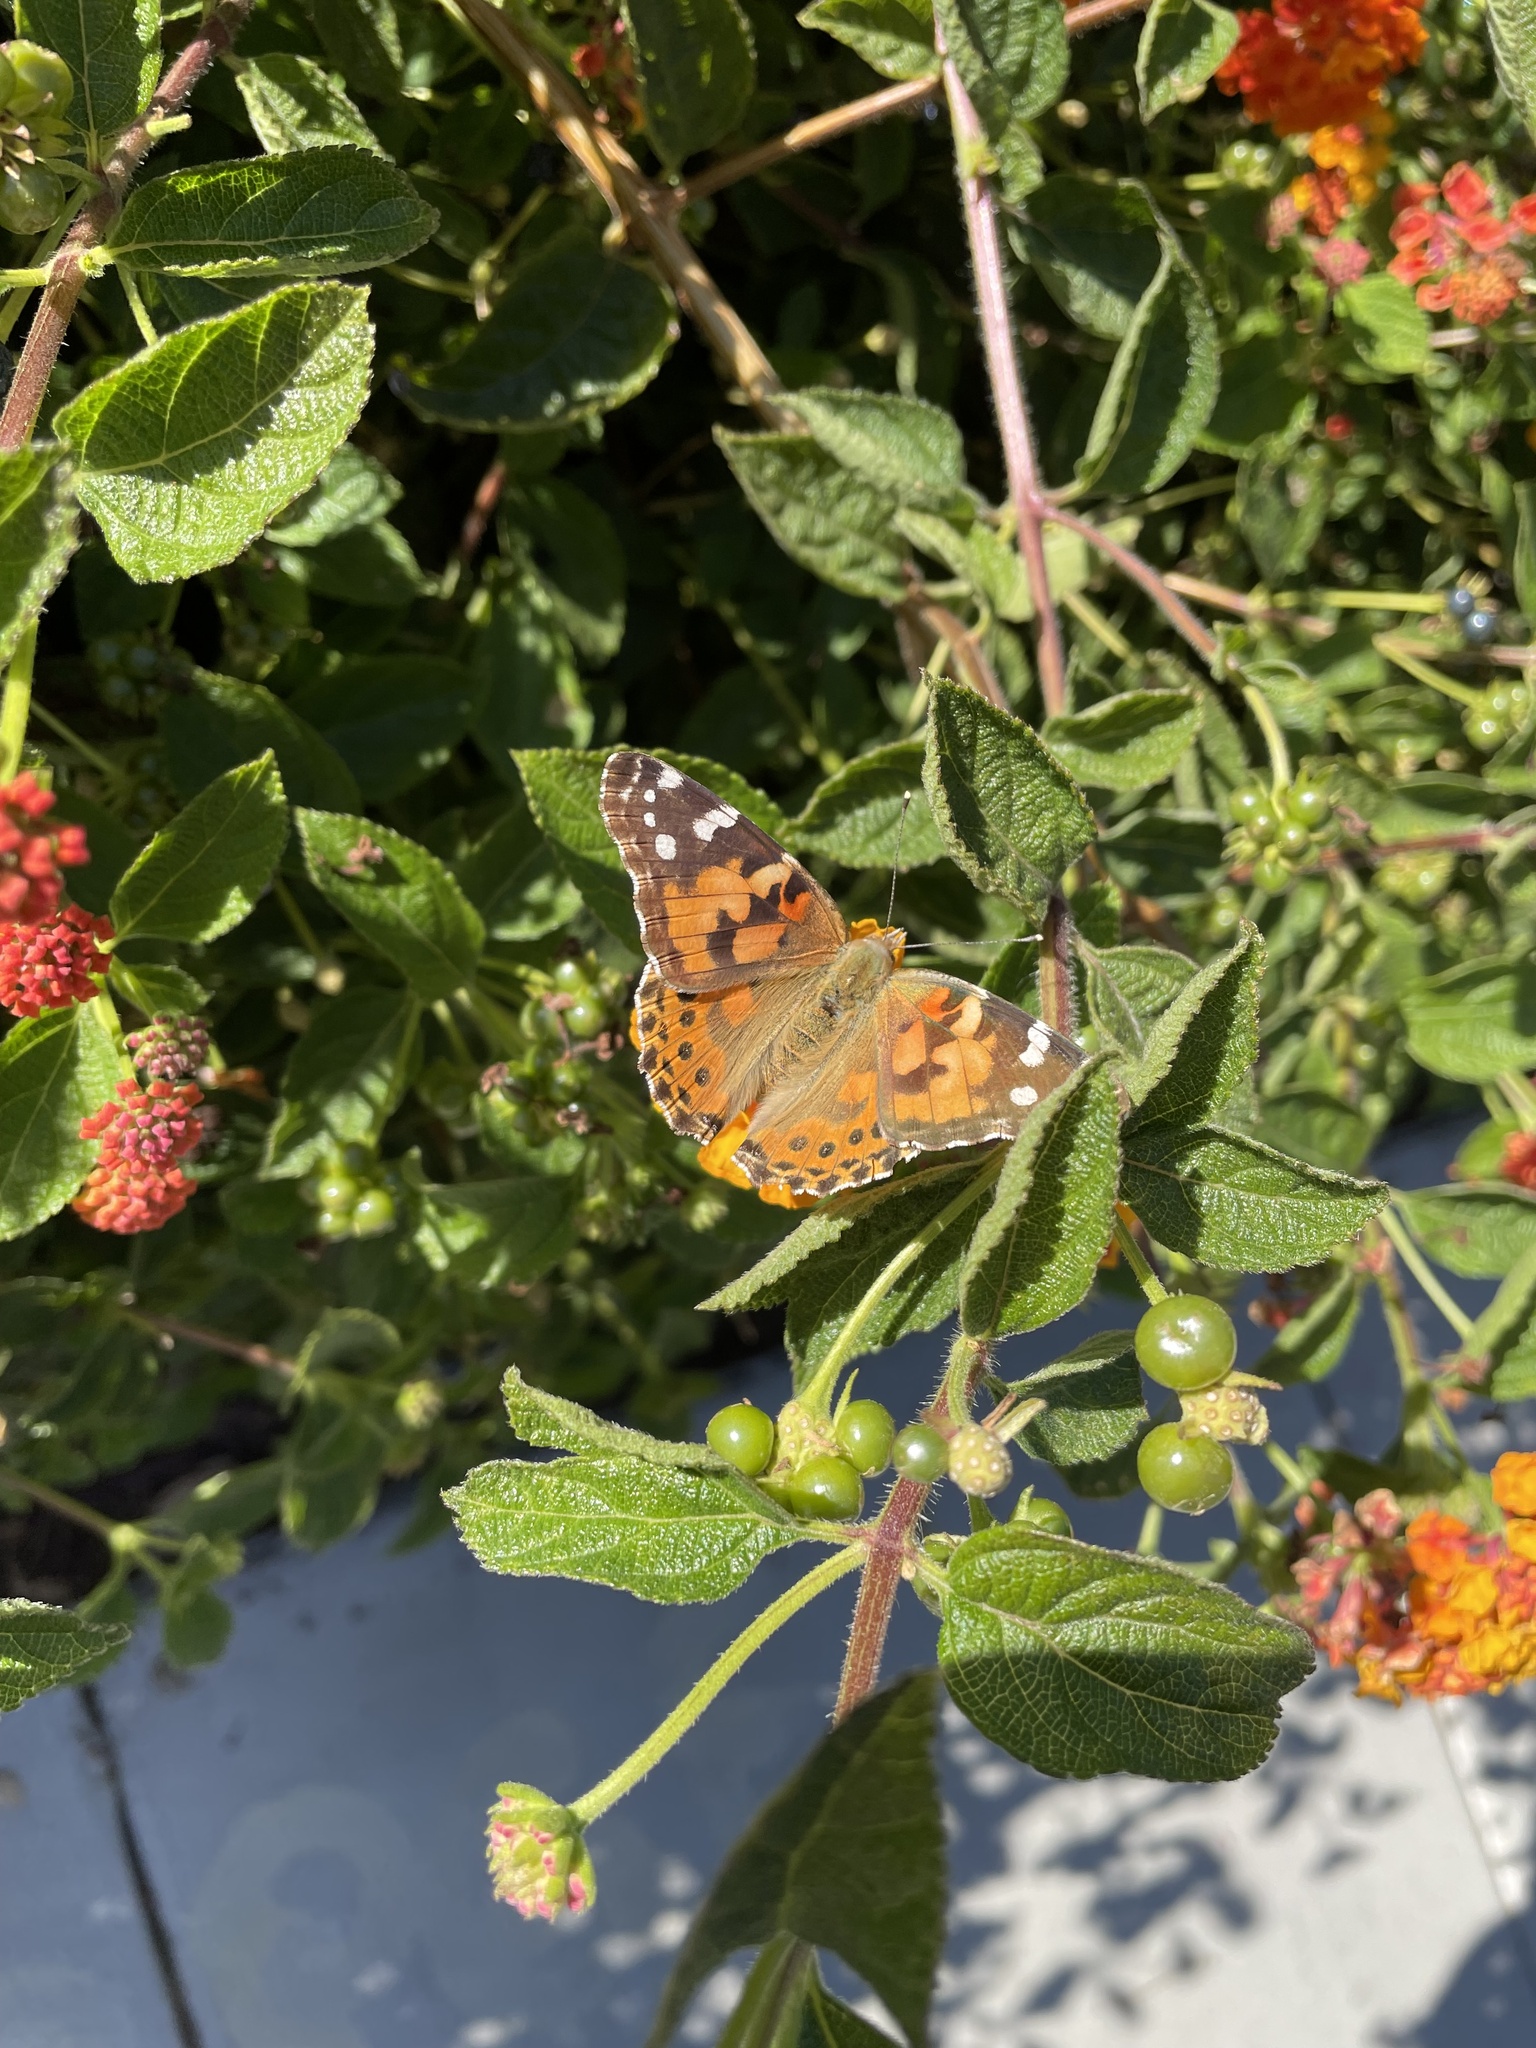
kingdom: Animalia
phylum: Arthropoda
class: Insecta
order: Lepidoptera
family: Nymphalidae
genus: Vanessa
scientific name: Vanessa cardui
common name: Painted lady
